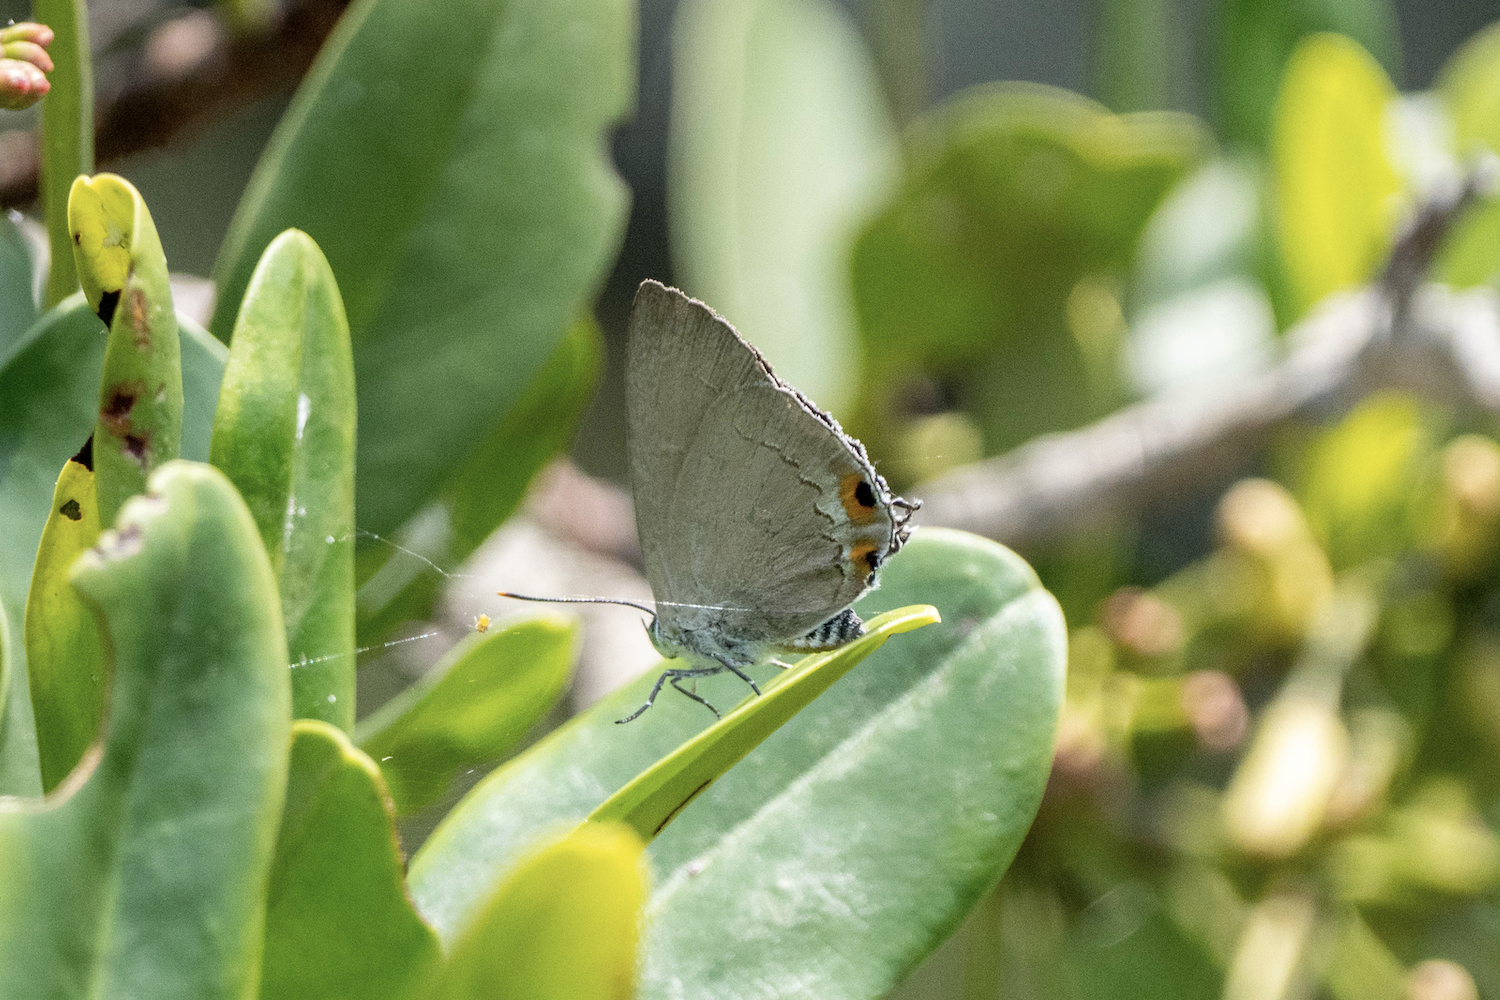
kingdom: Animalia
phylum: Arthropoda
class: Insecta
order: Lepidoptera
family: Lycaenidae
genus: Ancema
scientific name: Ancema blanka
